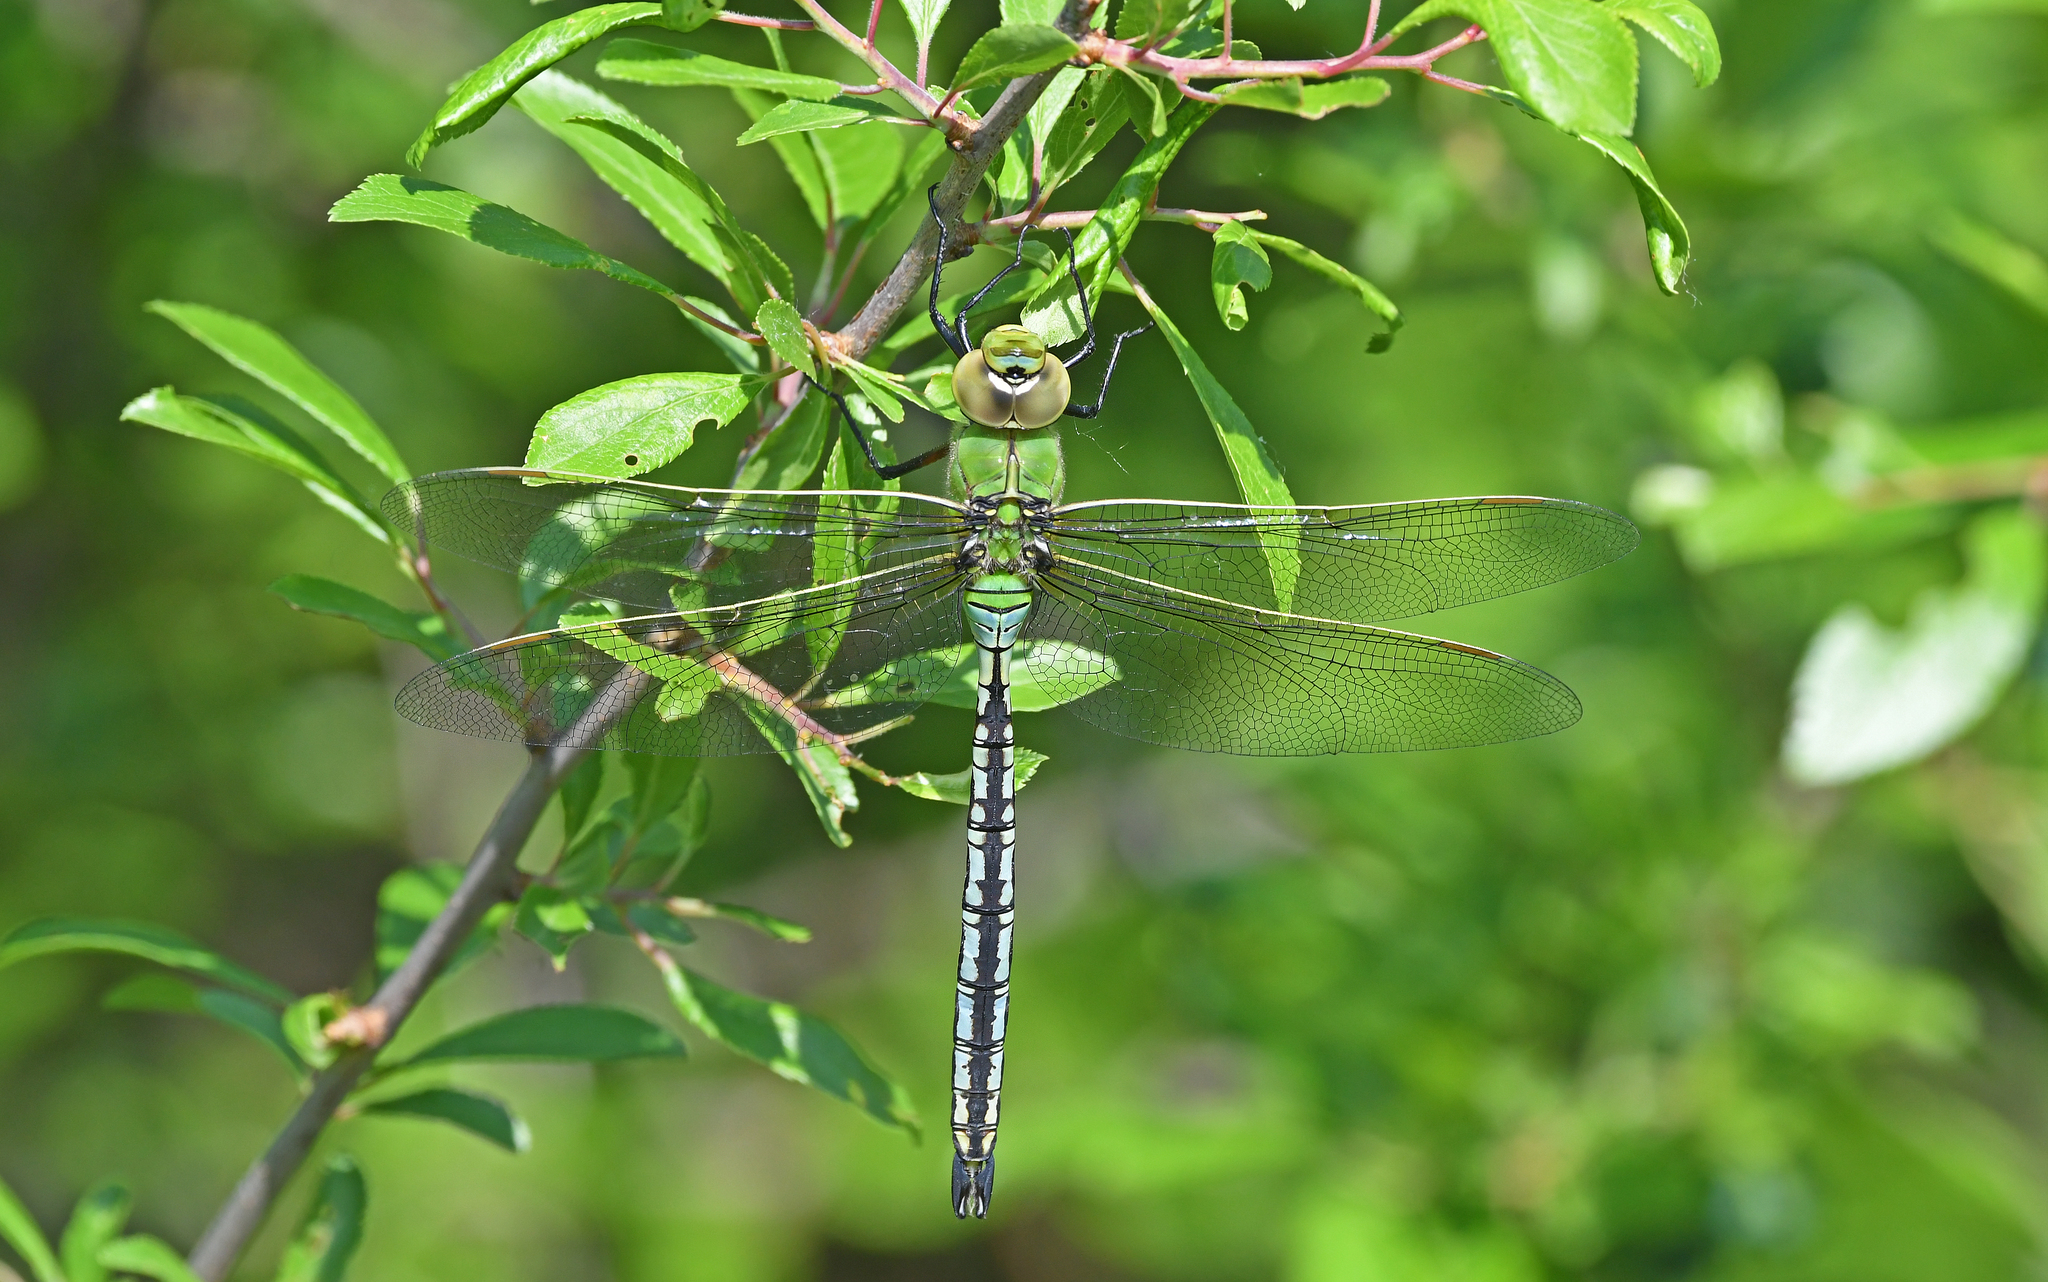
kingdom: Animalia
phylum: Arthropoda
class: Insecta
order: Odonata
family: Aeshnidae
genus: Anax
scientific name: Anax imperator
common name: Emperor dragonfly
